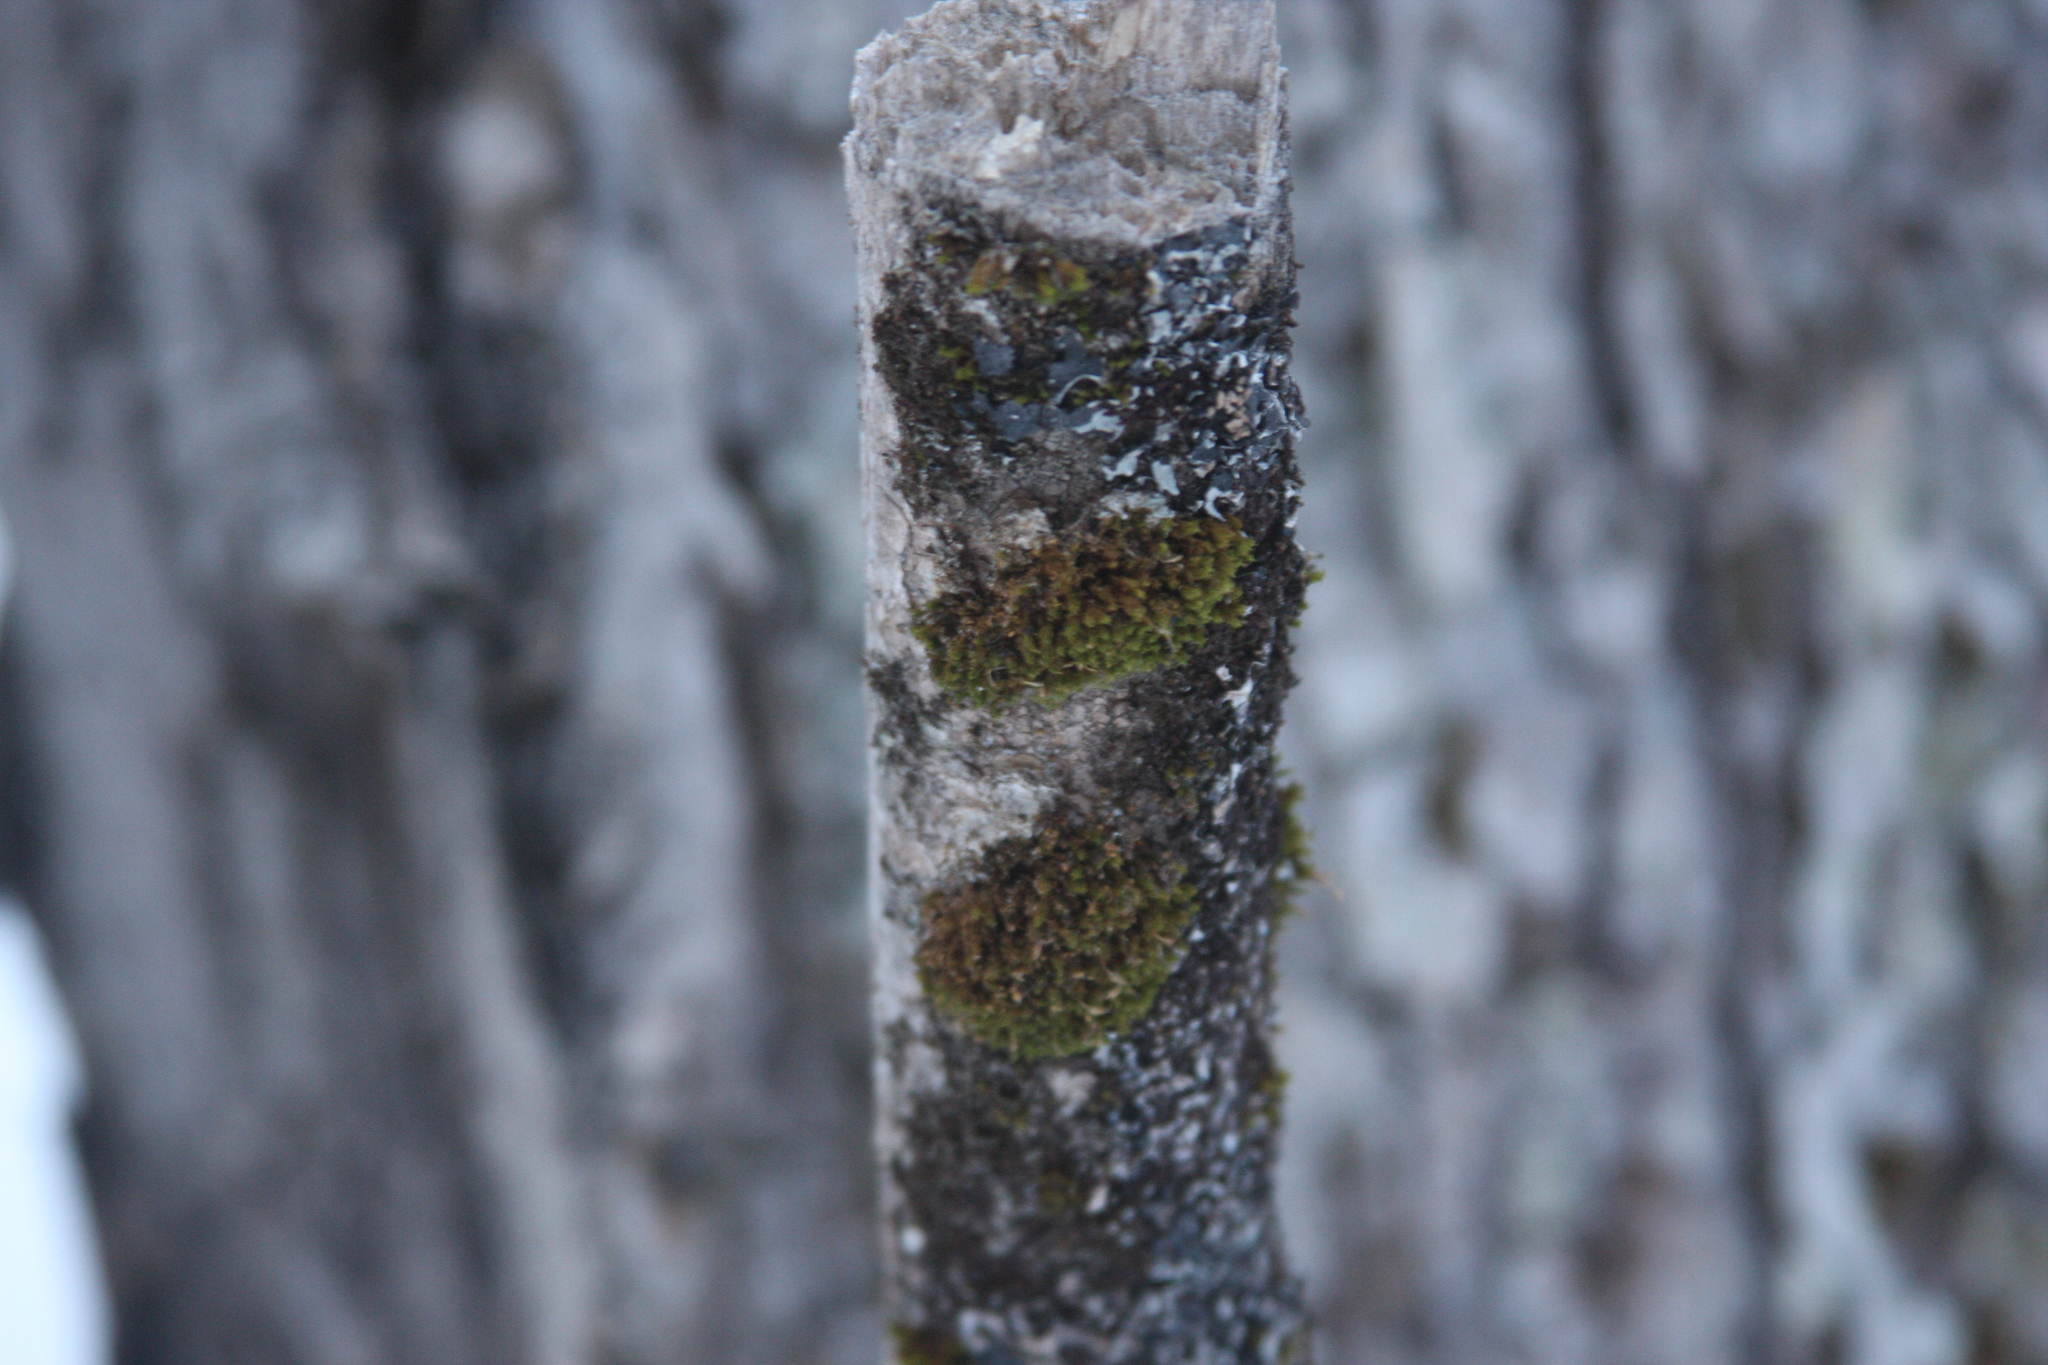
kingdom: Plantae
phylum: Bryophyta
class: Bryopsida
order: Orthotrichales
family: Orthotrichaceae
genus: Ulota
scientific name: Ulota crispa
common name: Crisped pincushion moss
